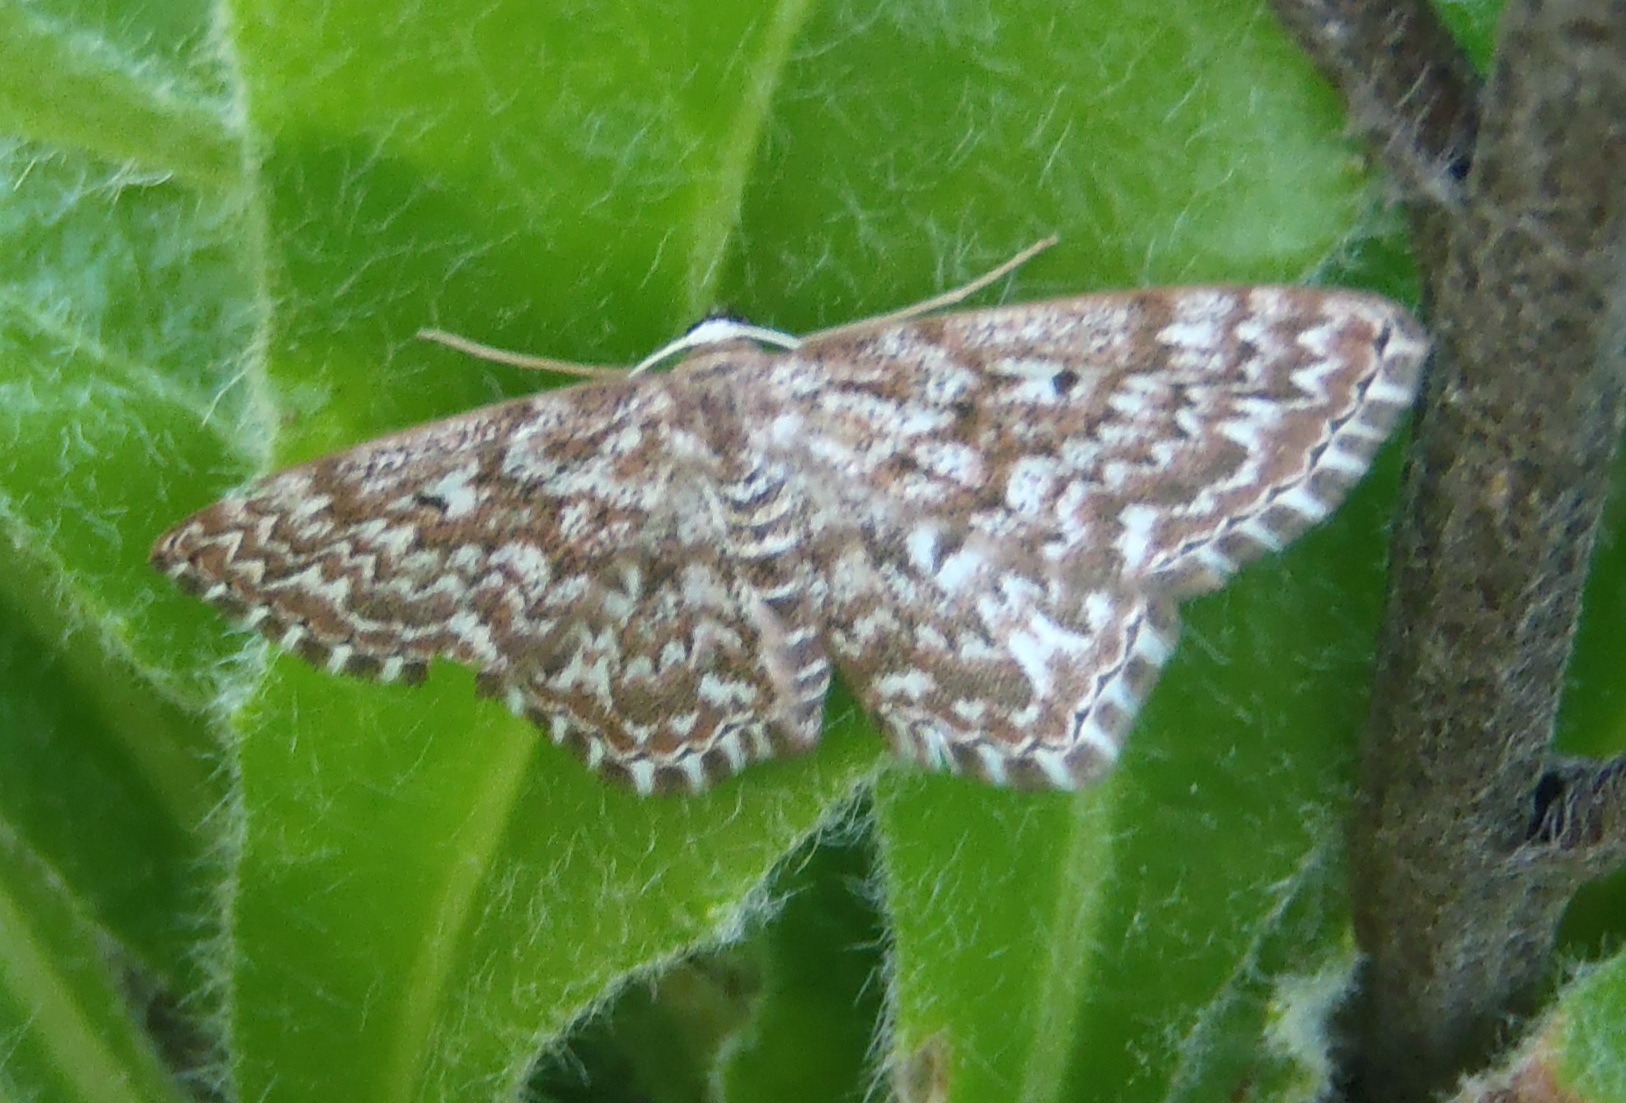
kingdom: Animalia
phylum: Arthropoda
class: Insecta
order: Lepidoptera
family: Geometridae
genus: Scopula
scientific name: Scopula inscriptata
